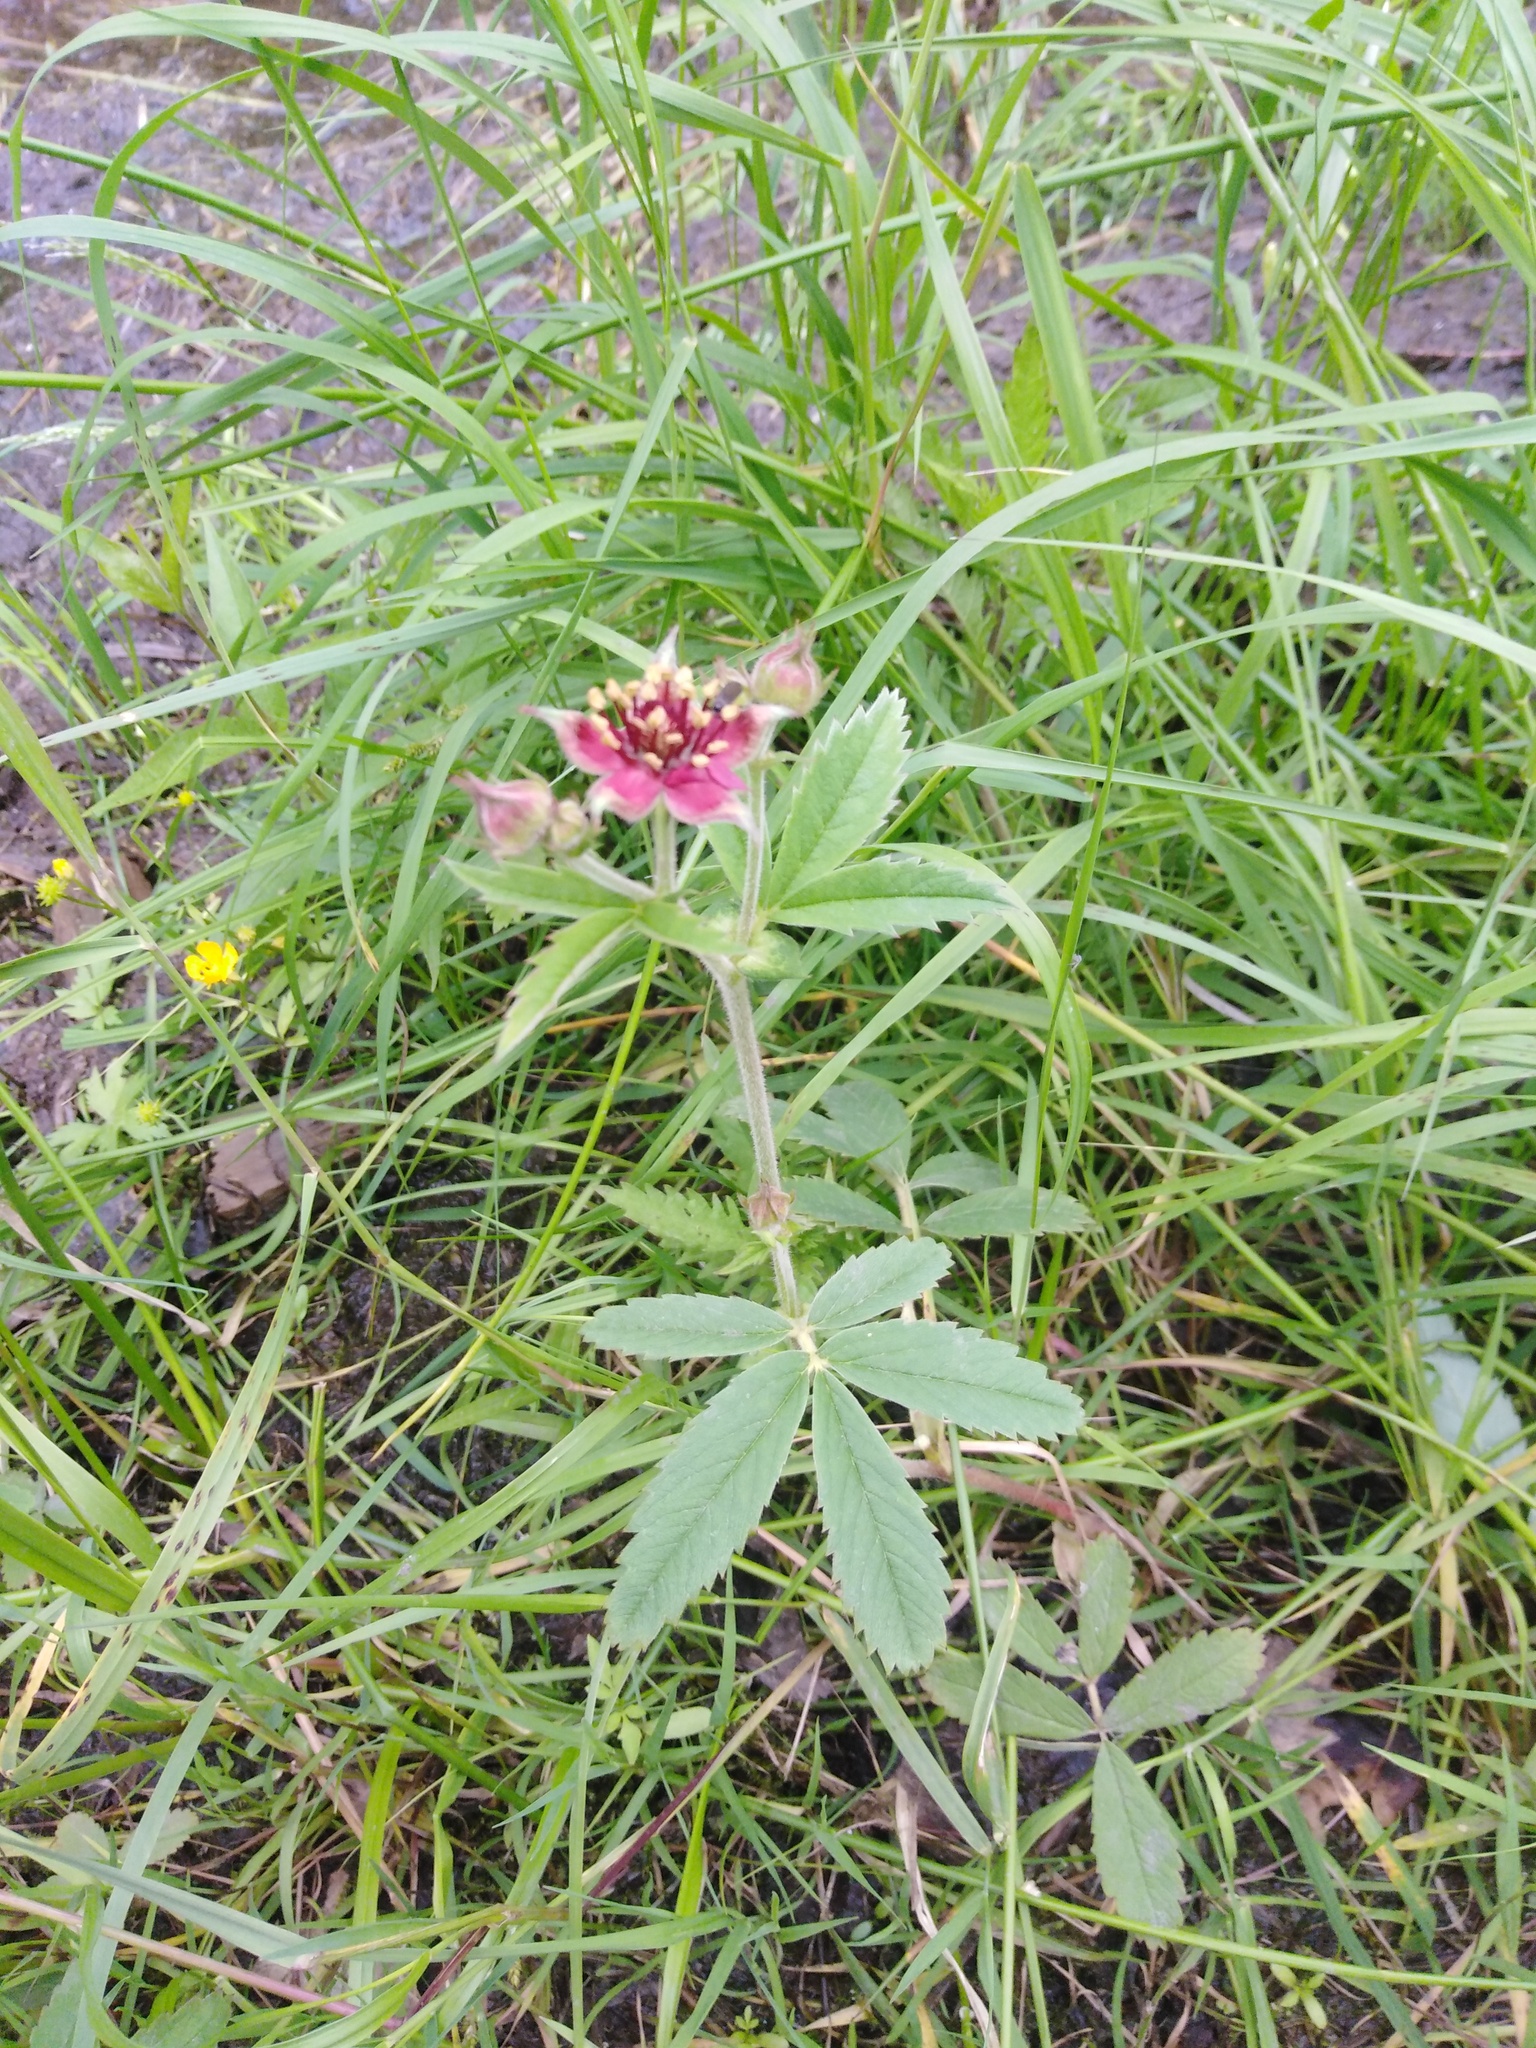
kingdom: Plantae
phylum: Tracheophyta
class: Magnoliopsida
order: Rosales
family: Rosaceae
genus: Comarum
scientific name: Comarum palustre
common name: Marsh cinquefoil
